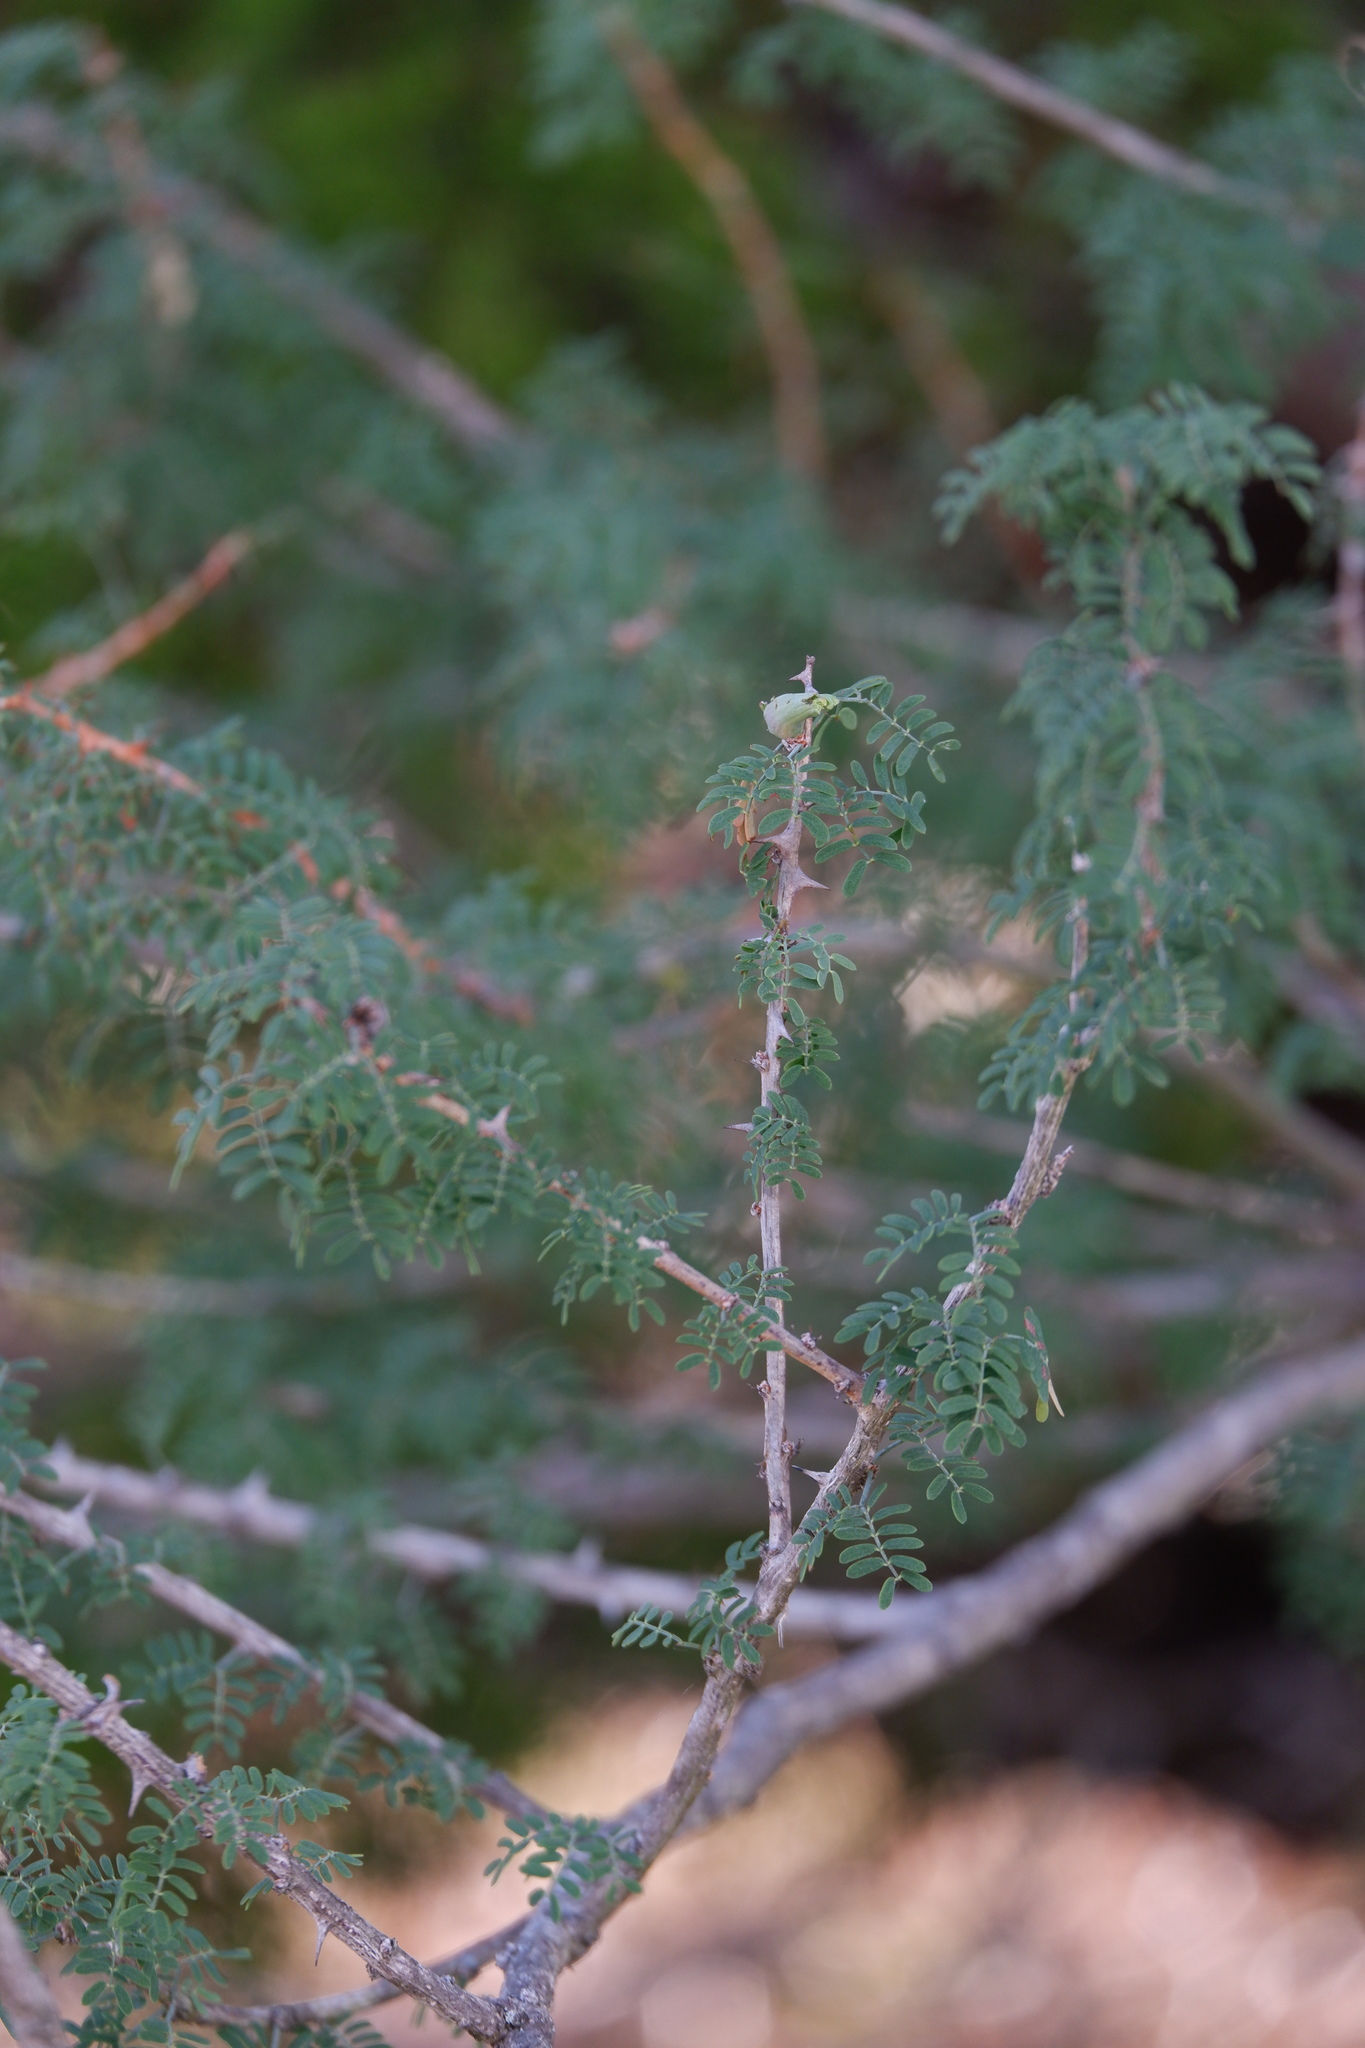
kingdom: Plantae
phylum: Tracheophyta
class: Magnoliopsida
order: Fabales
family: Fabaceae
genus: Mimosa
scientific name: Mimosa borealis
